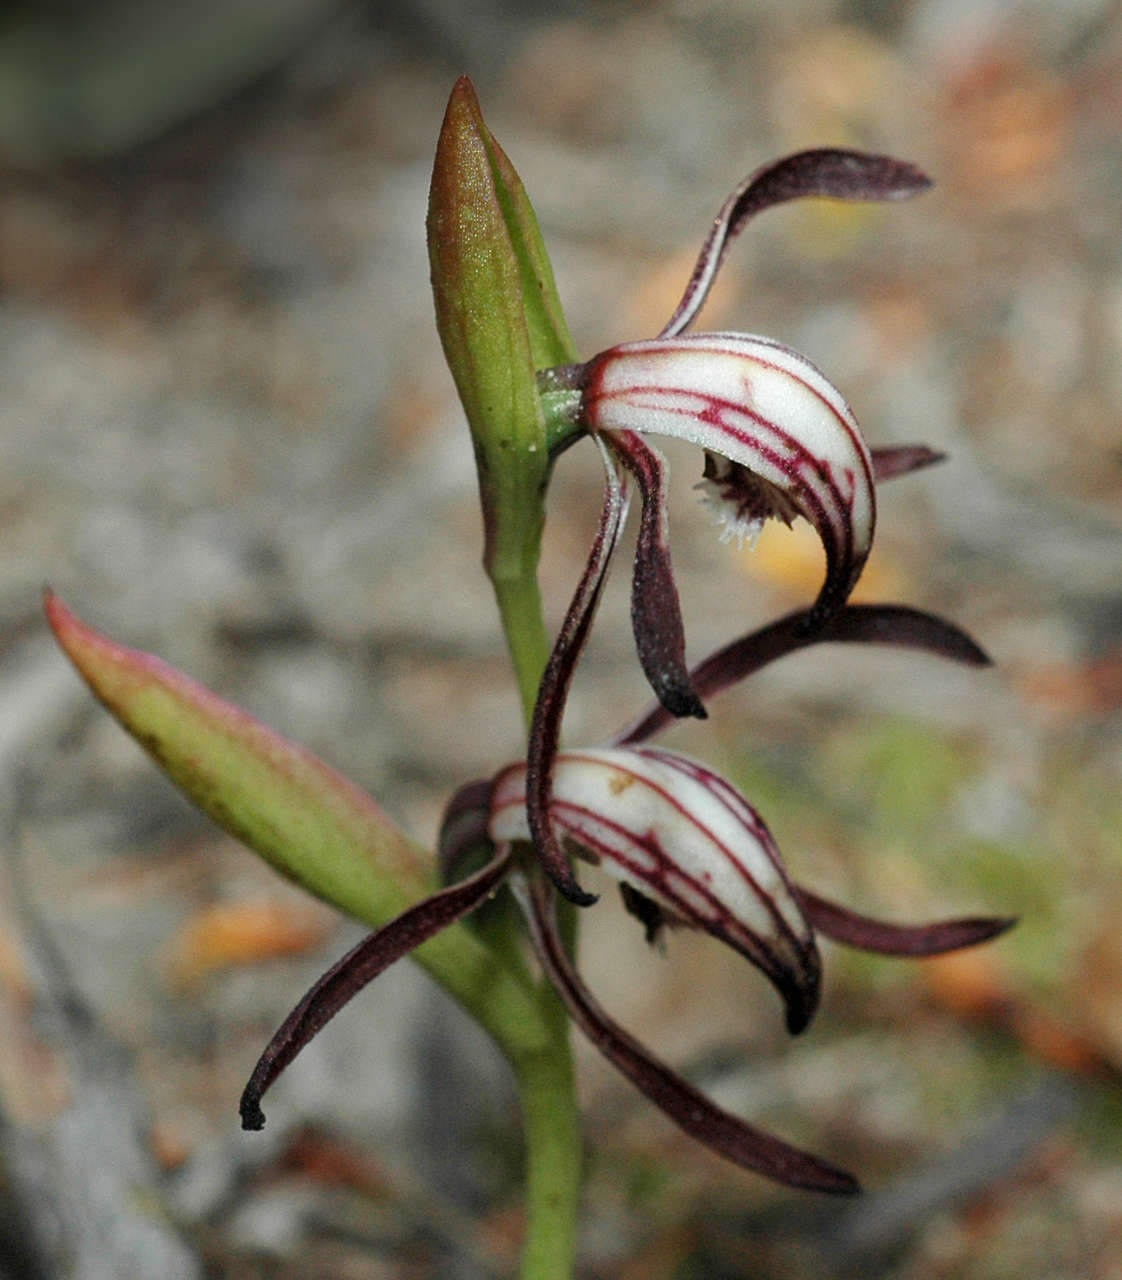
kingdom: Plantae
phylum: Tracheophyta
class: Liliopsida
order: Asparagales
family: Orchidaceae
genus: Pyrorchis
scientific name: Pyrorchis nigricans
